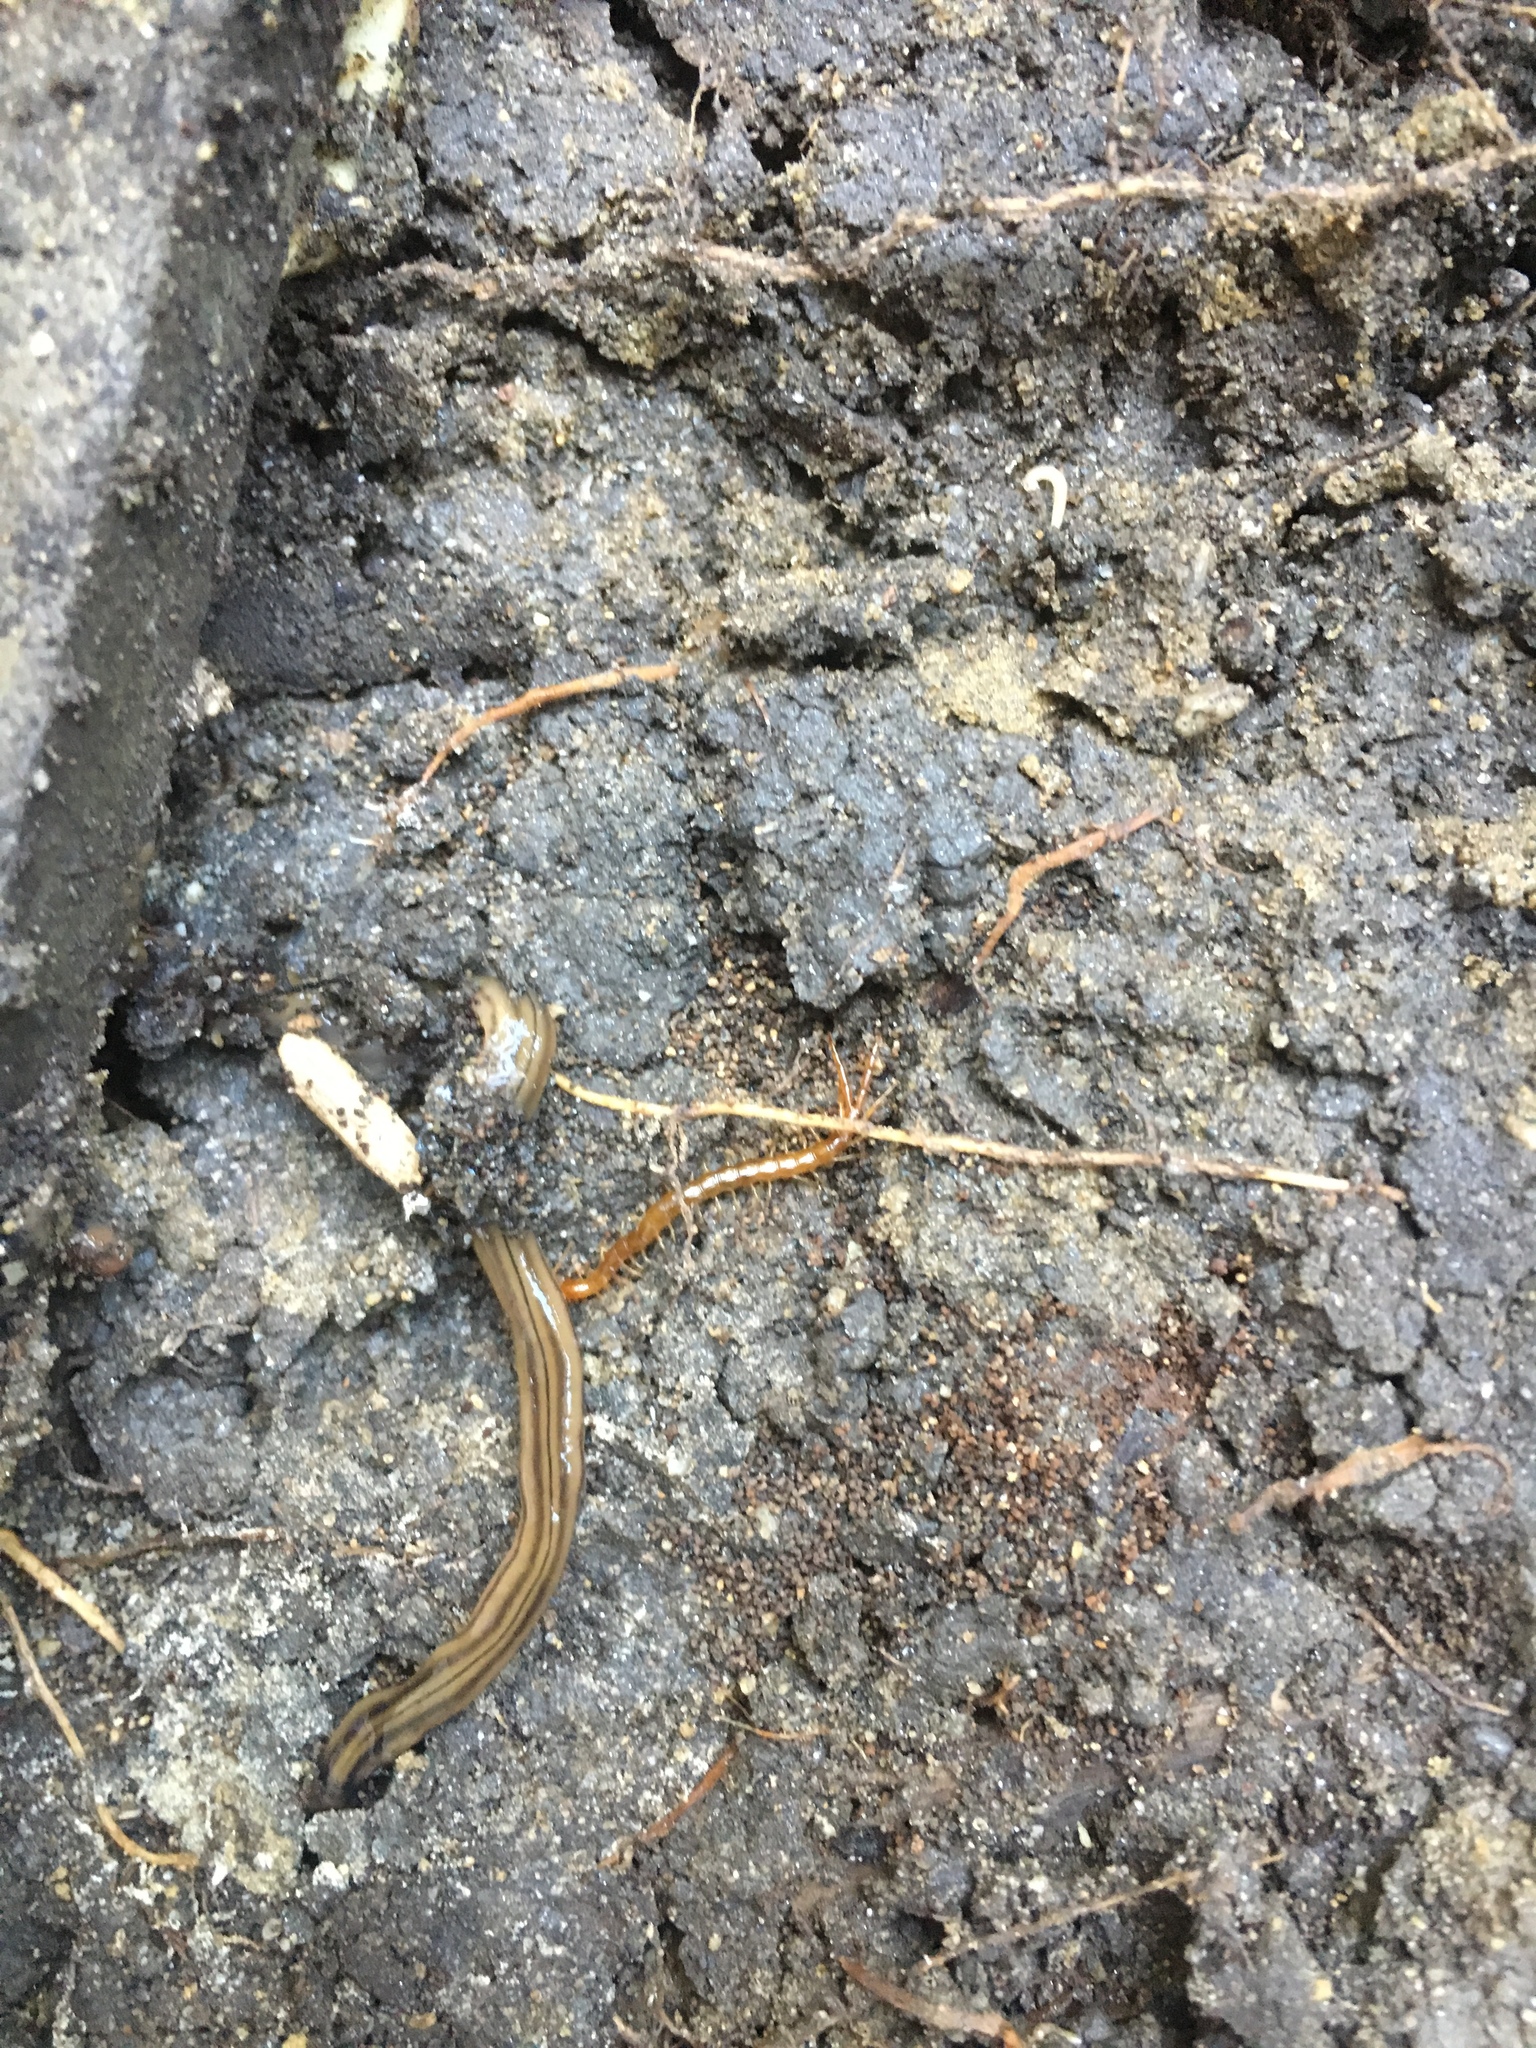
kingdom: Animalia
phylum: Platyhelminthes
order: Tricladida
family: Geoplanidae
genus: Bipalium
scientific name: Bipalium kewense
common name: Hammerhead flatworm
